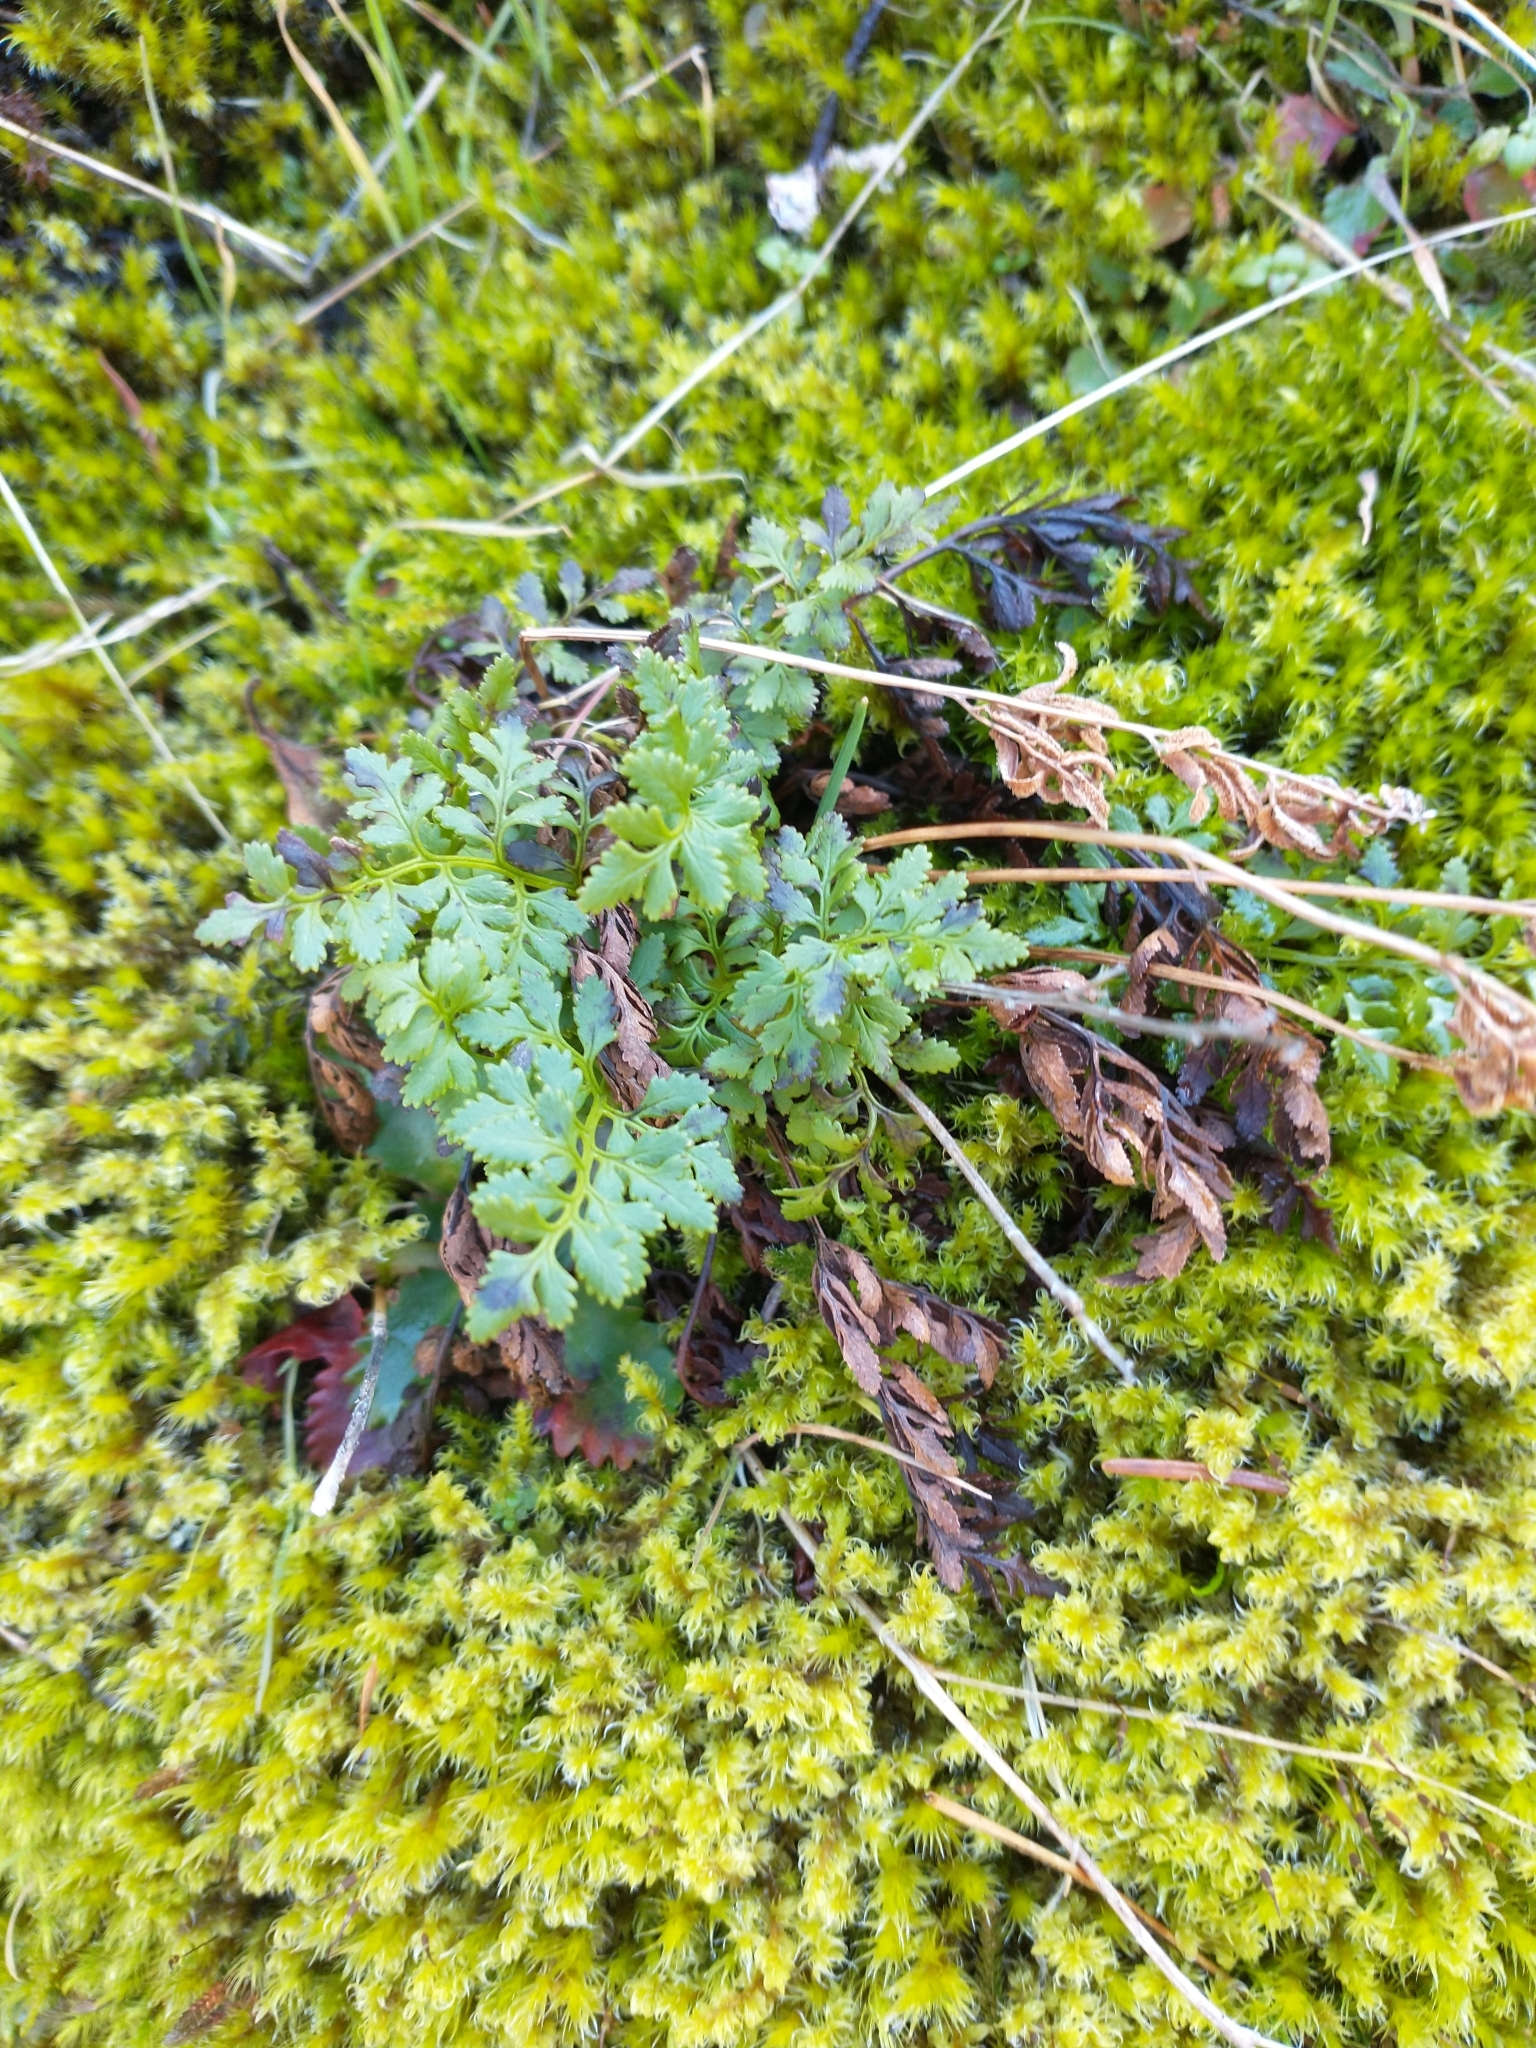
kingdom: Plantae
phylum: Tracheophyta
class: Polypodiopsida
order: Polypodiales
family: Pteridaceae
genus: Cryptogramma
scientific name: Cryptogramma acrostichoides
